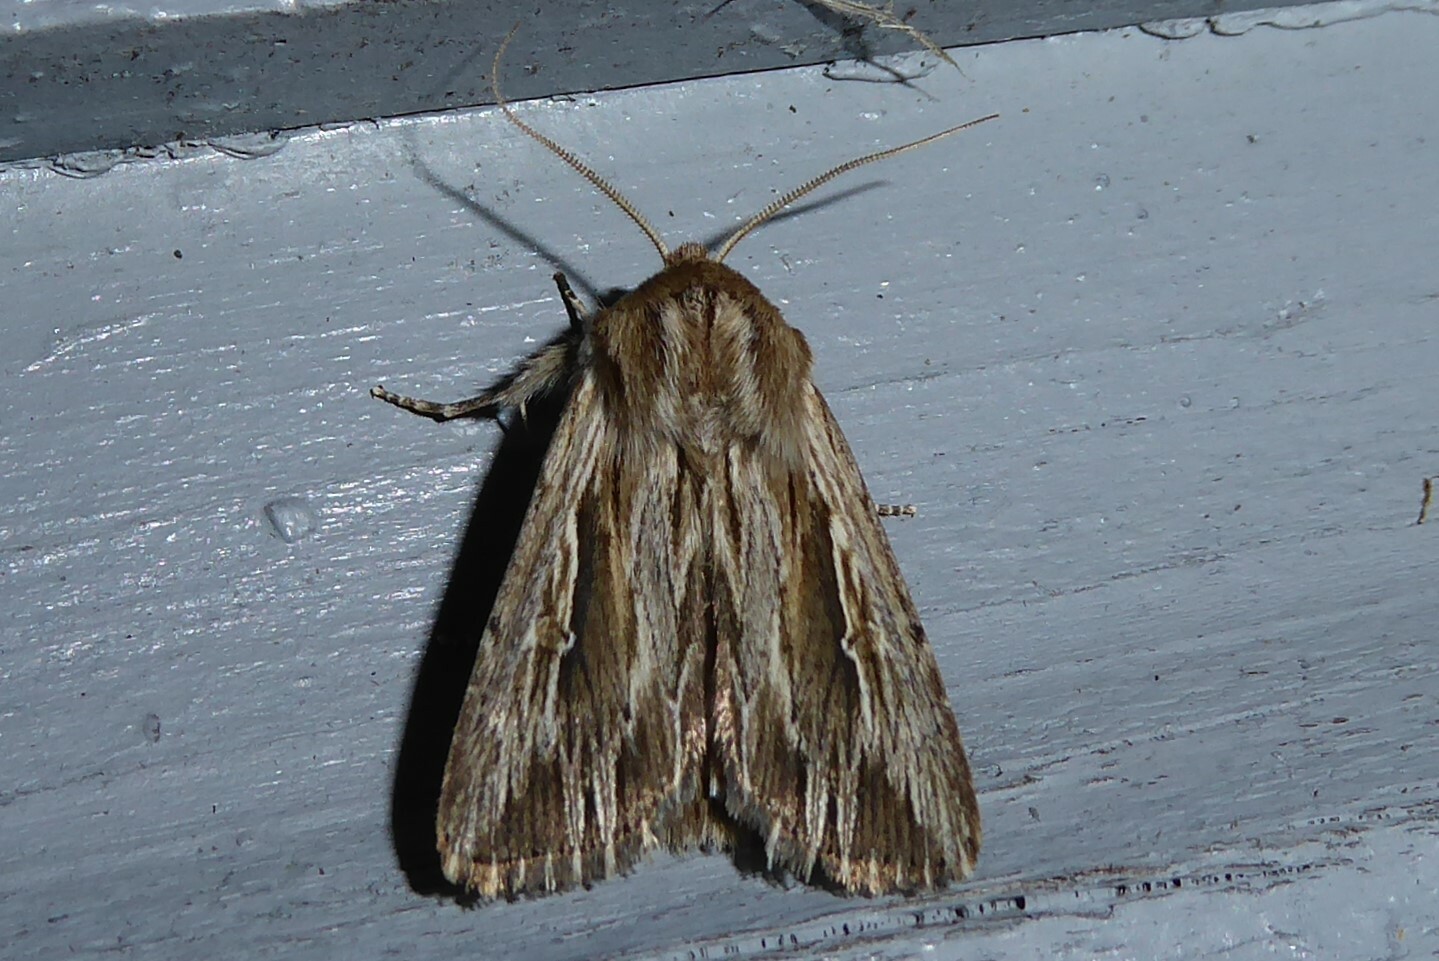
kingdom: Animalia
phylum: Arthropoda
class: Insecta
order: Lepidoptera
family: Noctuidae
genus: Persectania
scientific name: Persectania aversa
